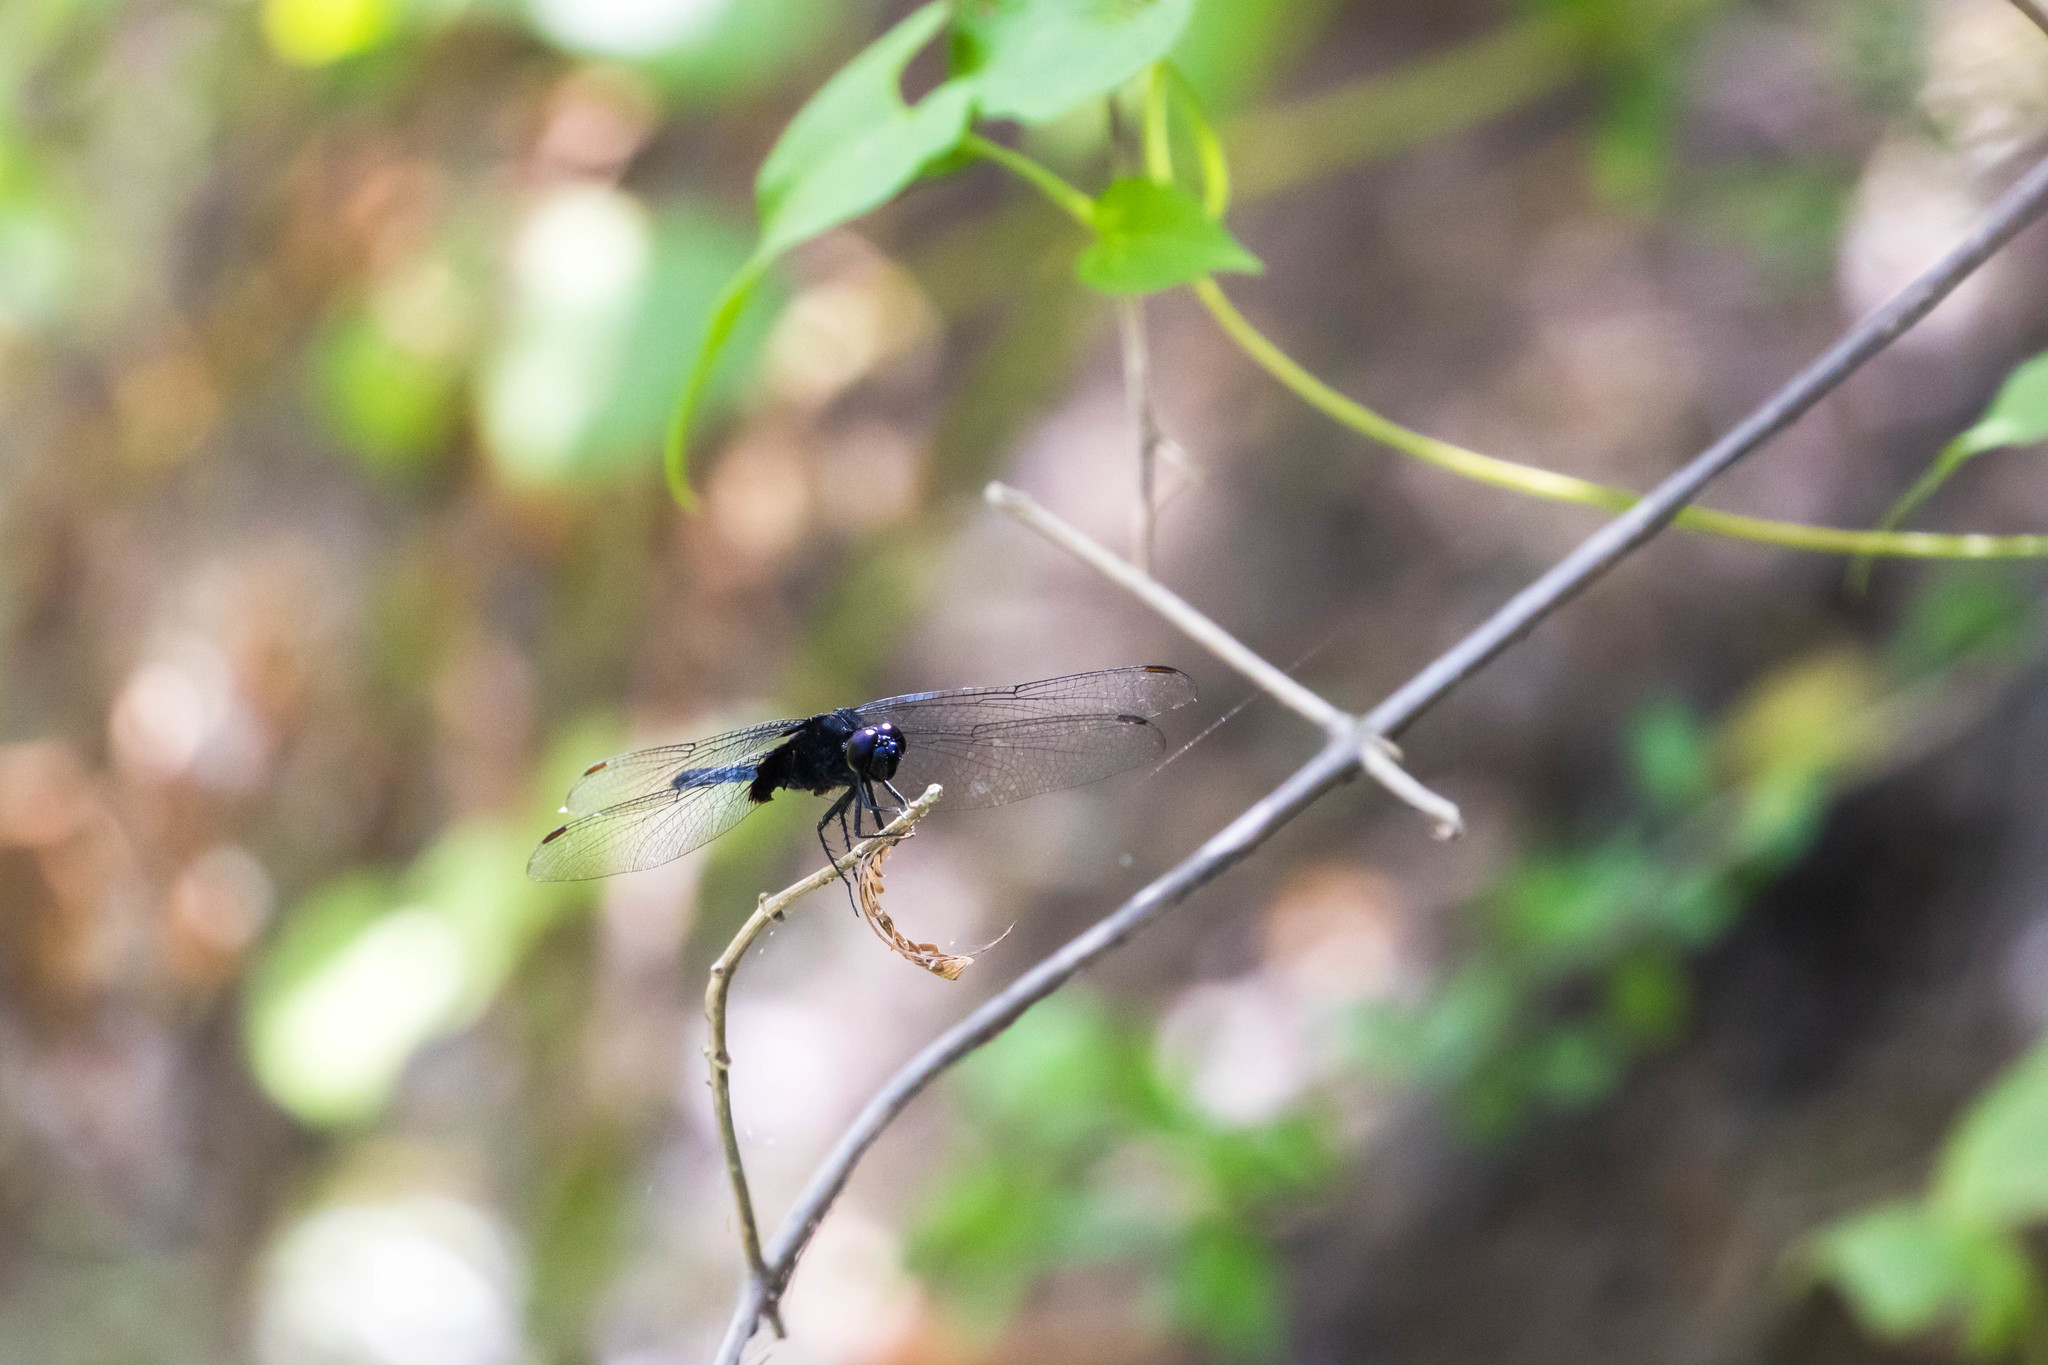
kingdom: Animalia
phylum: Arthropoda
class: Insecta
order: Odonata
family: Libellulidae
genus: Erythemis
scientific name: Erythemis attala
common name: Black pondhawk
